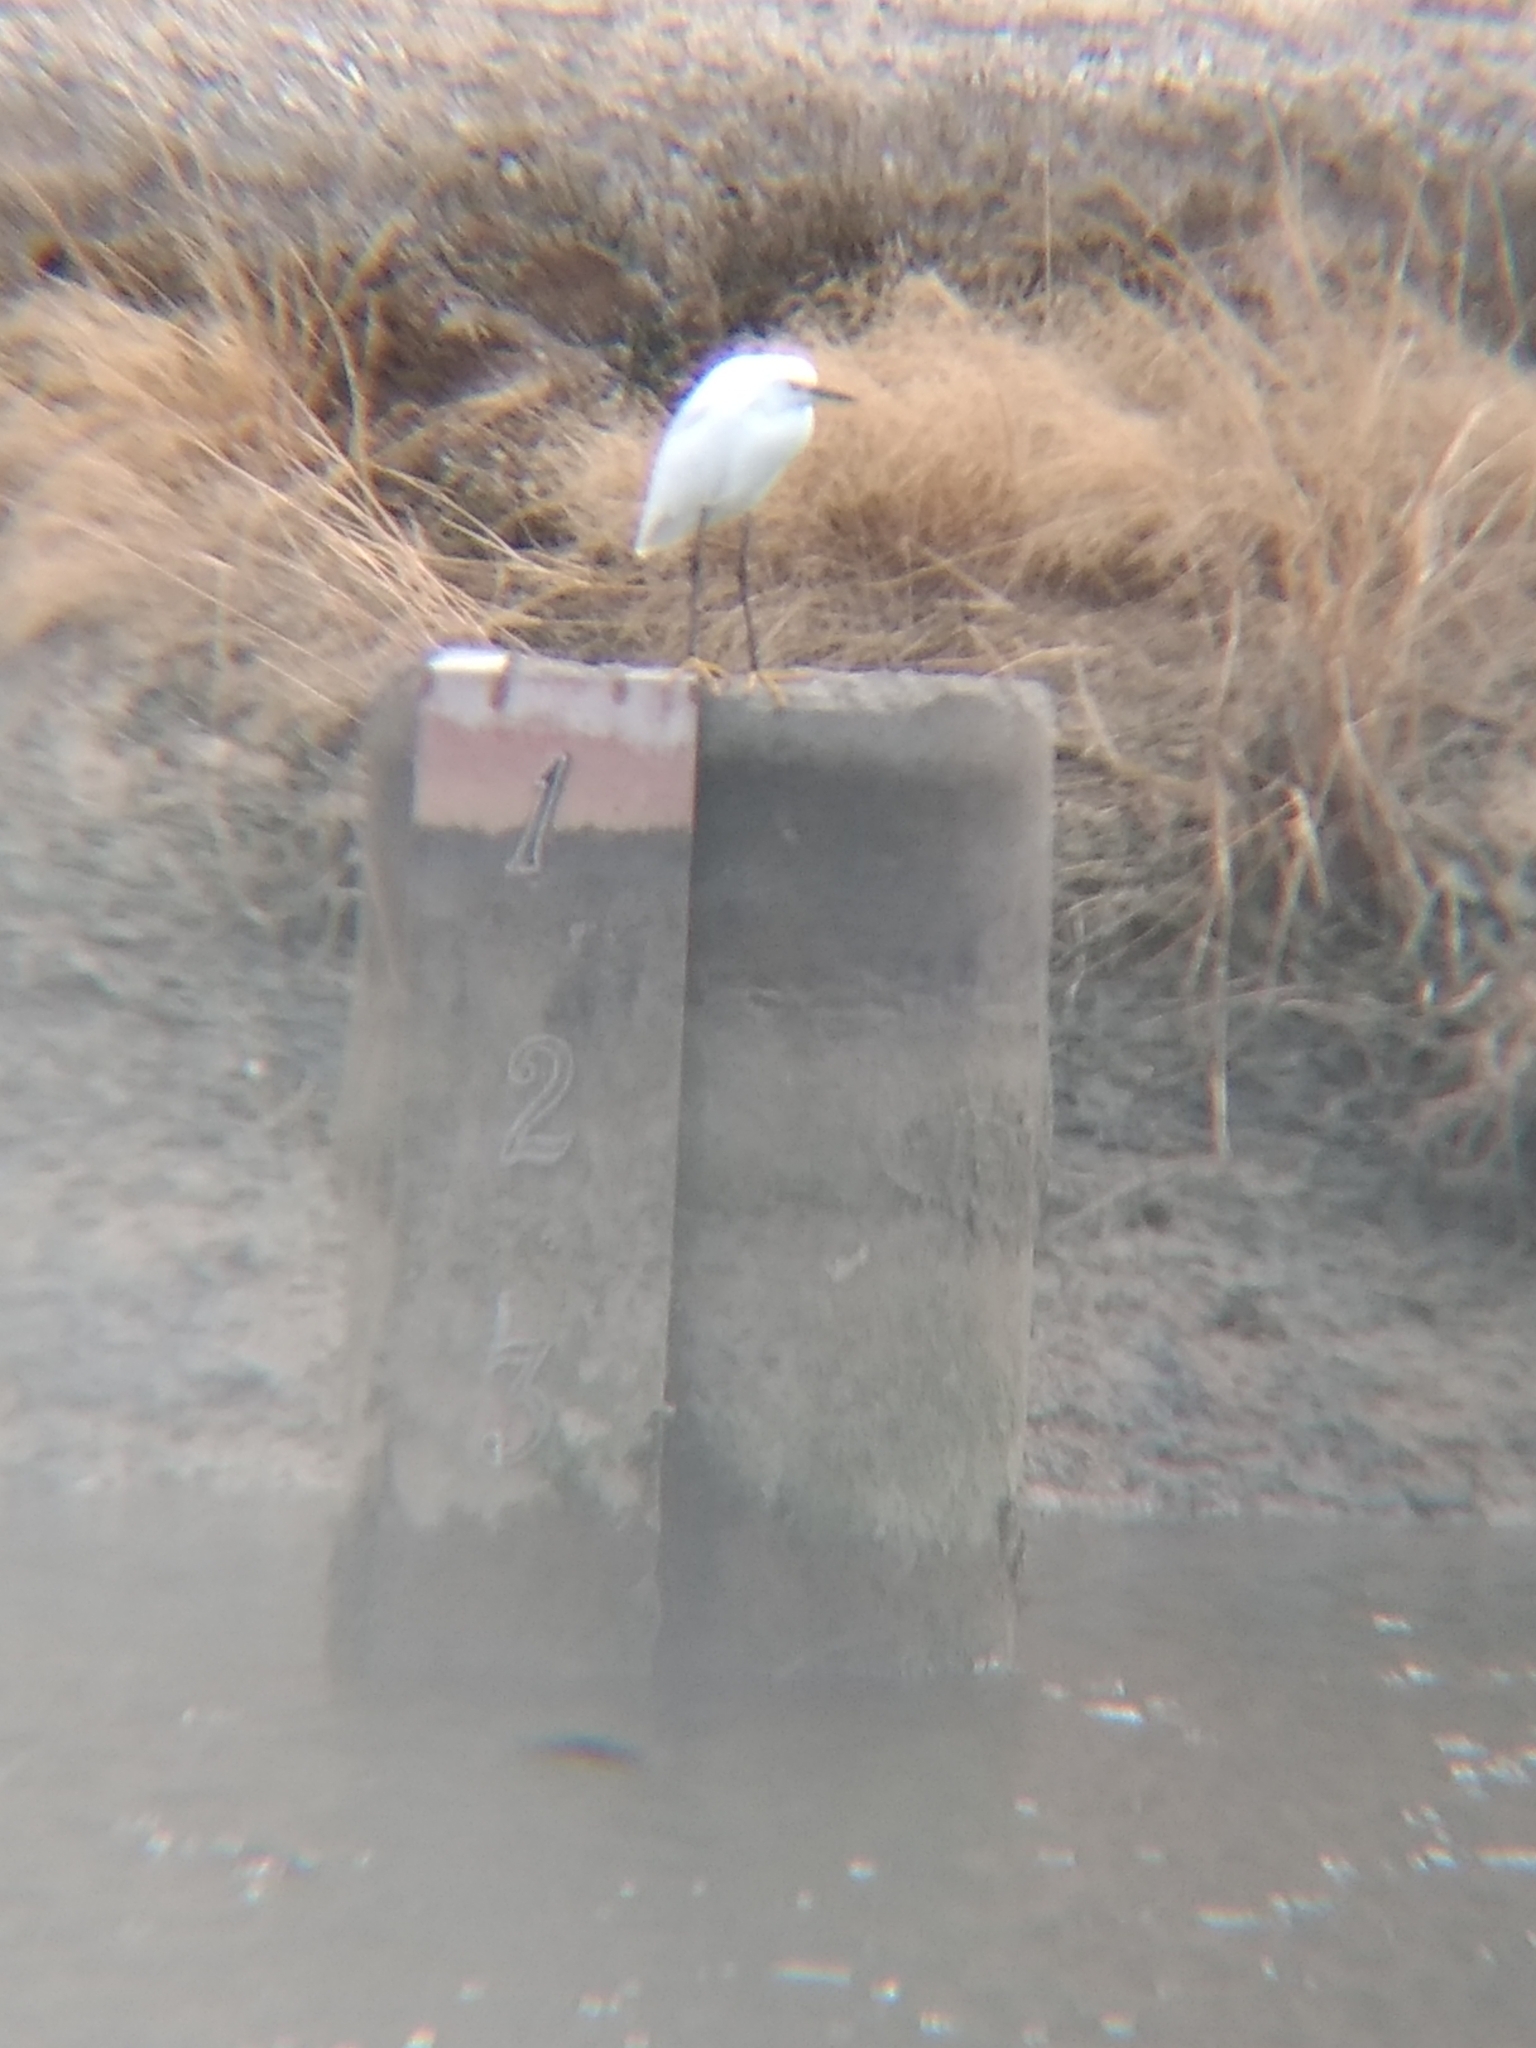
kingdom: Animalia
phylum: Chordata
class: Aves
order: Pelecaniformes
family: Ardeidae
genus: Egretta
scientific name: Egretta thula
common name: Snowy egret
